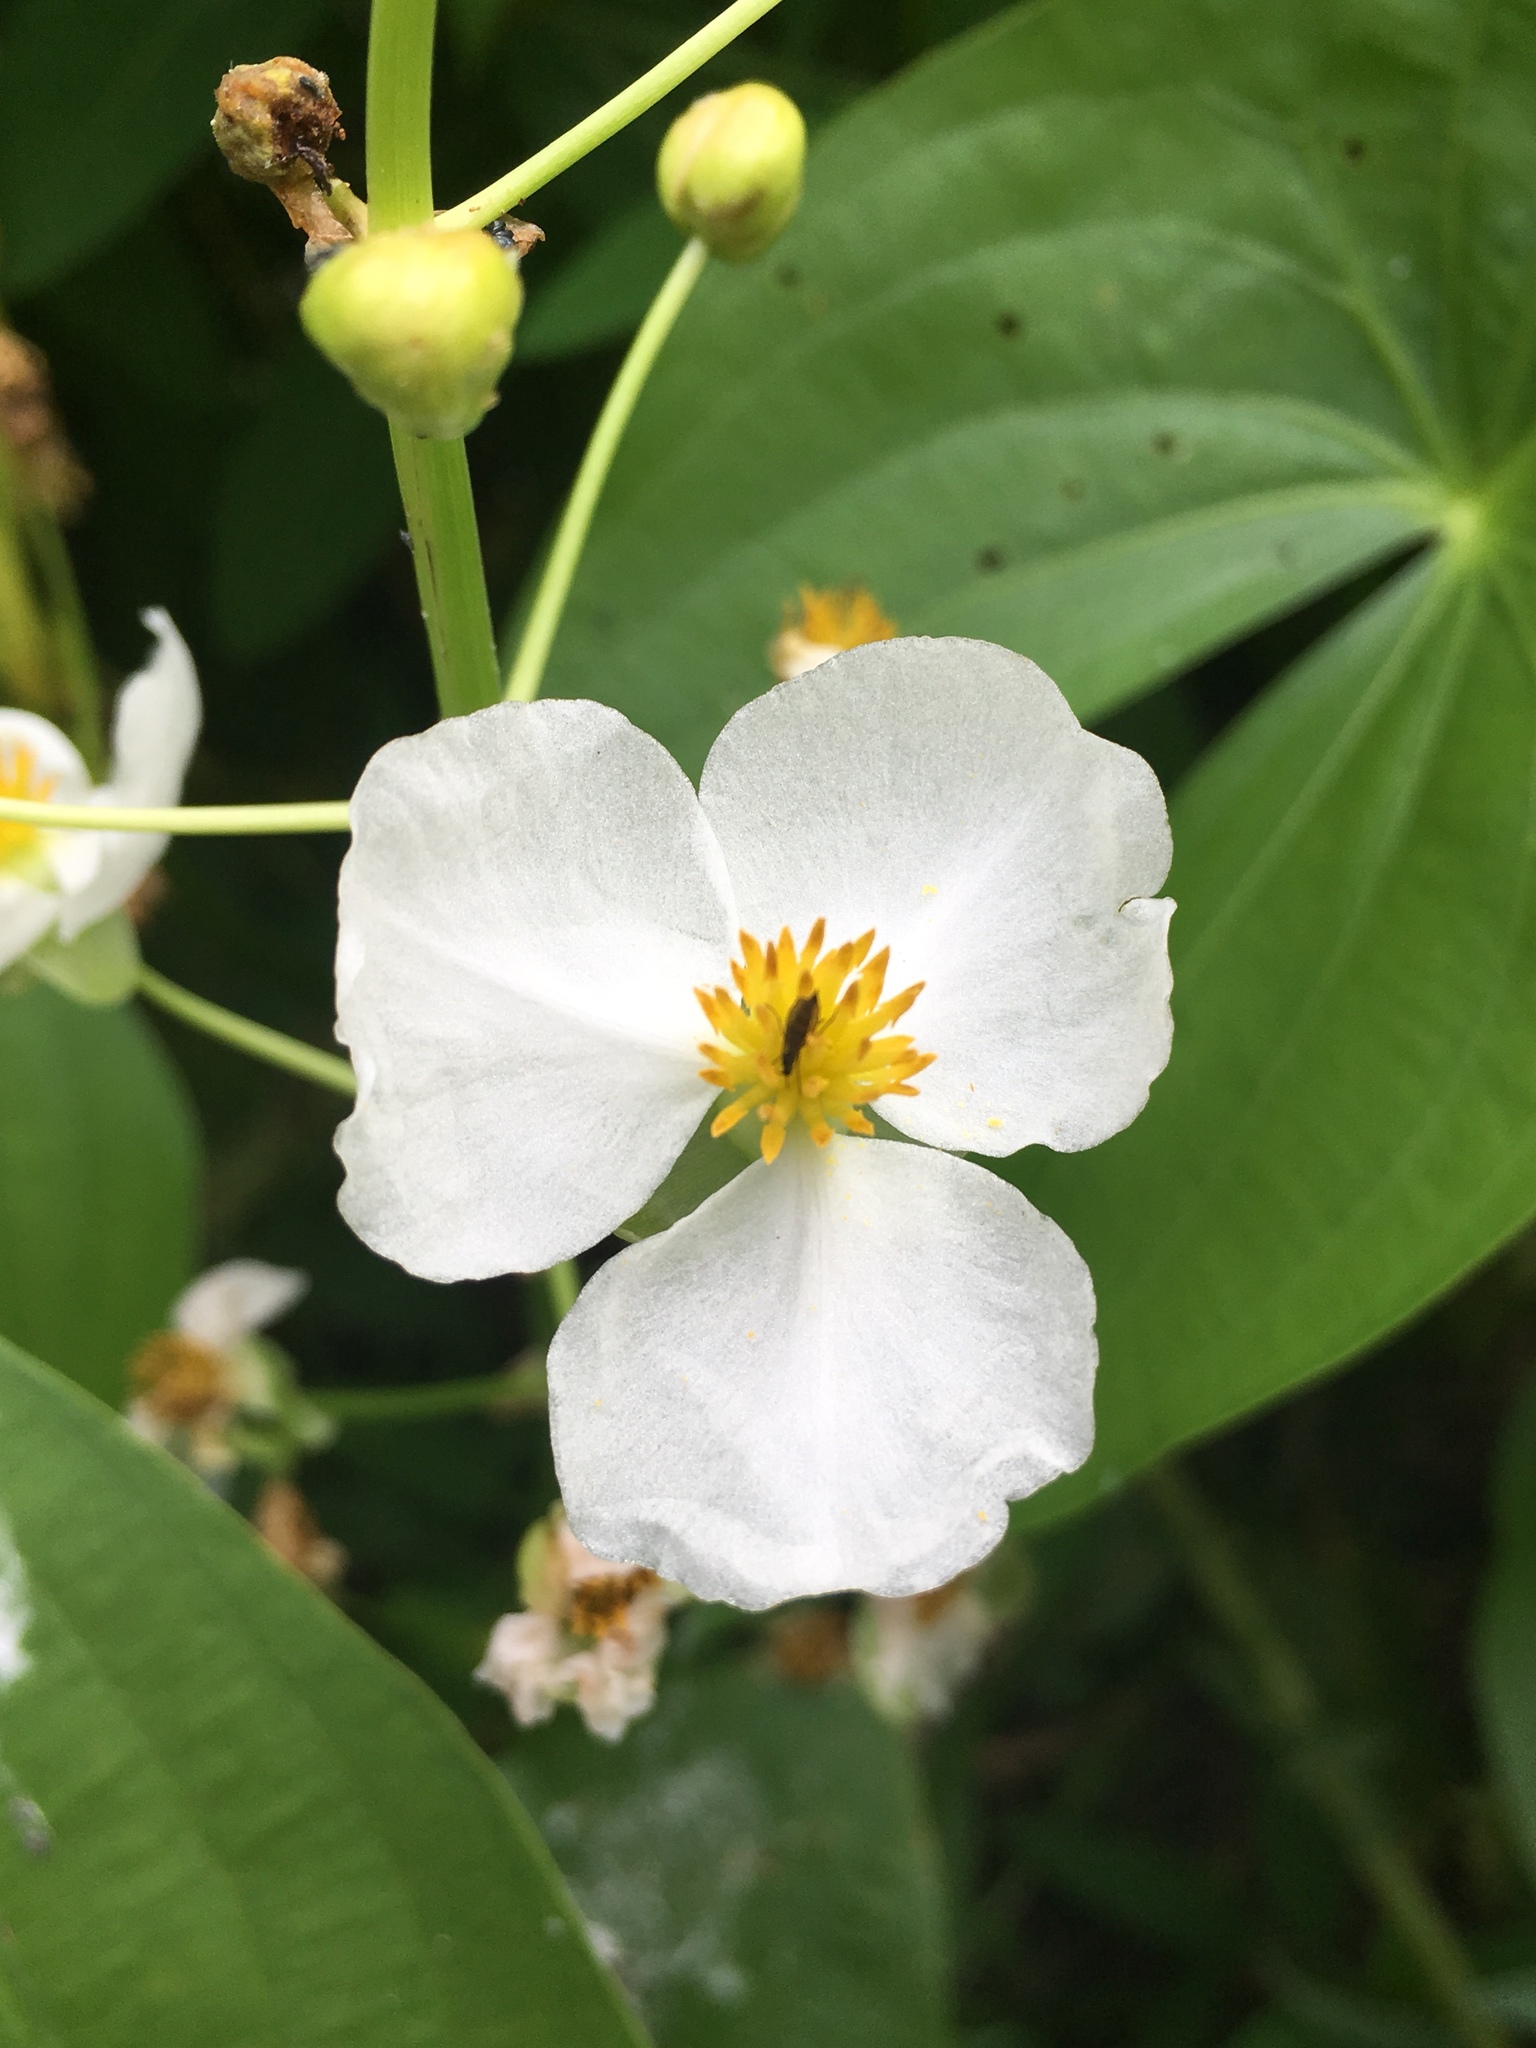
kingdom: Plantae
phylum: Tracheophyta
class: Liliopsida
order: Alismatales
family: Alismataceae
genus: Sagittaria
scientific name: Sagittaria latifolia
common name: Duck-potato
